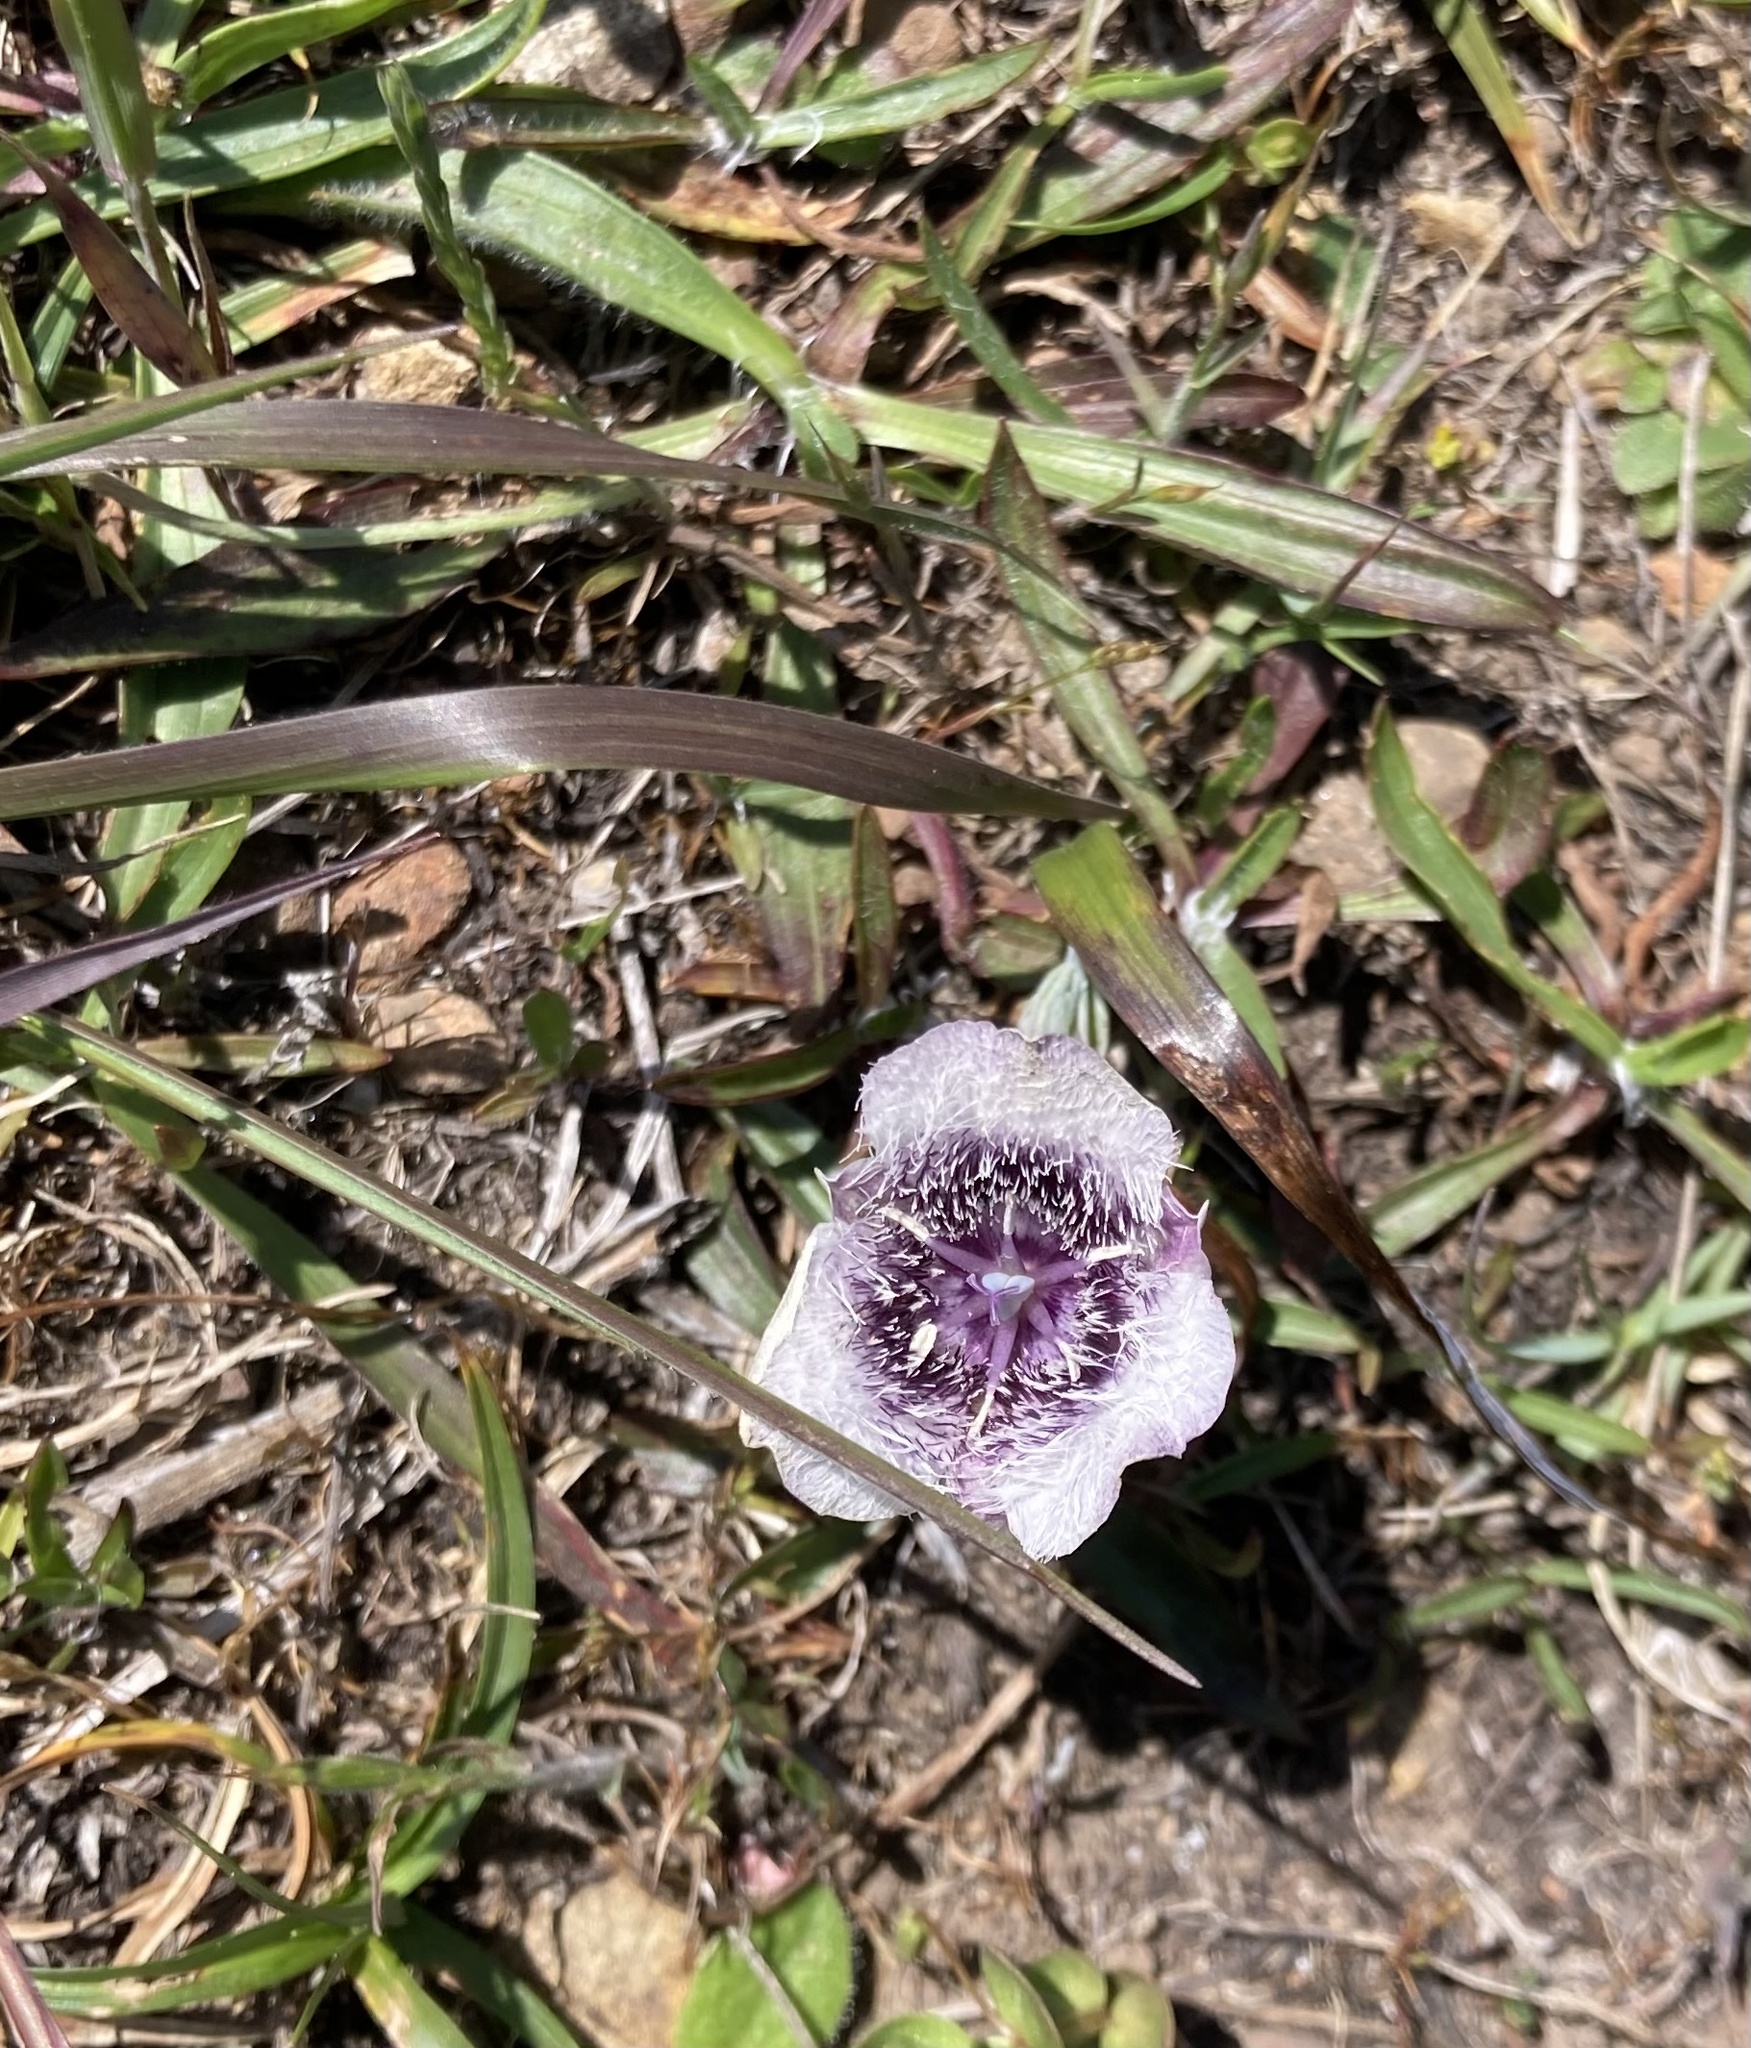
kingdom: Plantae
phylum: Tracheophyta
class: Liliopsida
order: Liliales
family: Liliaceae
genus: Calochortus
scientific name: Calochortus tolmiei
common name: Pussy-ears
